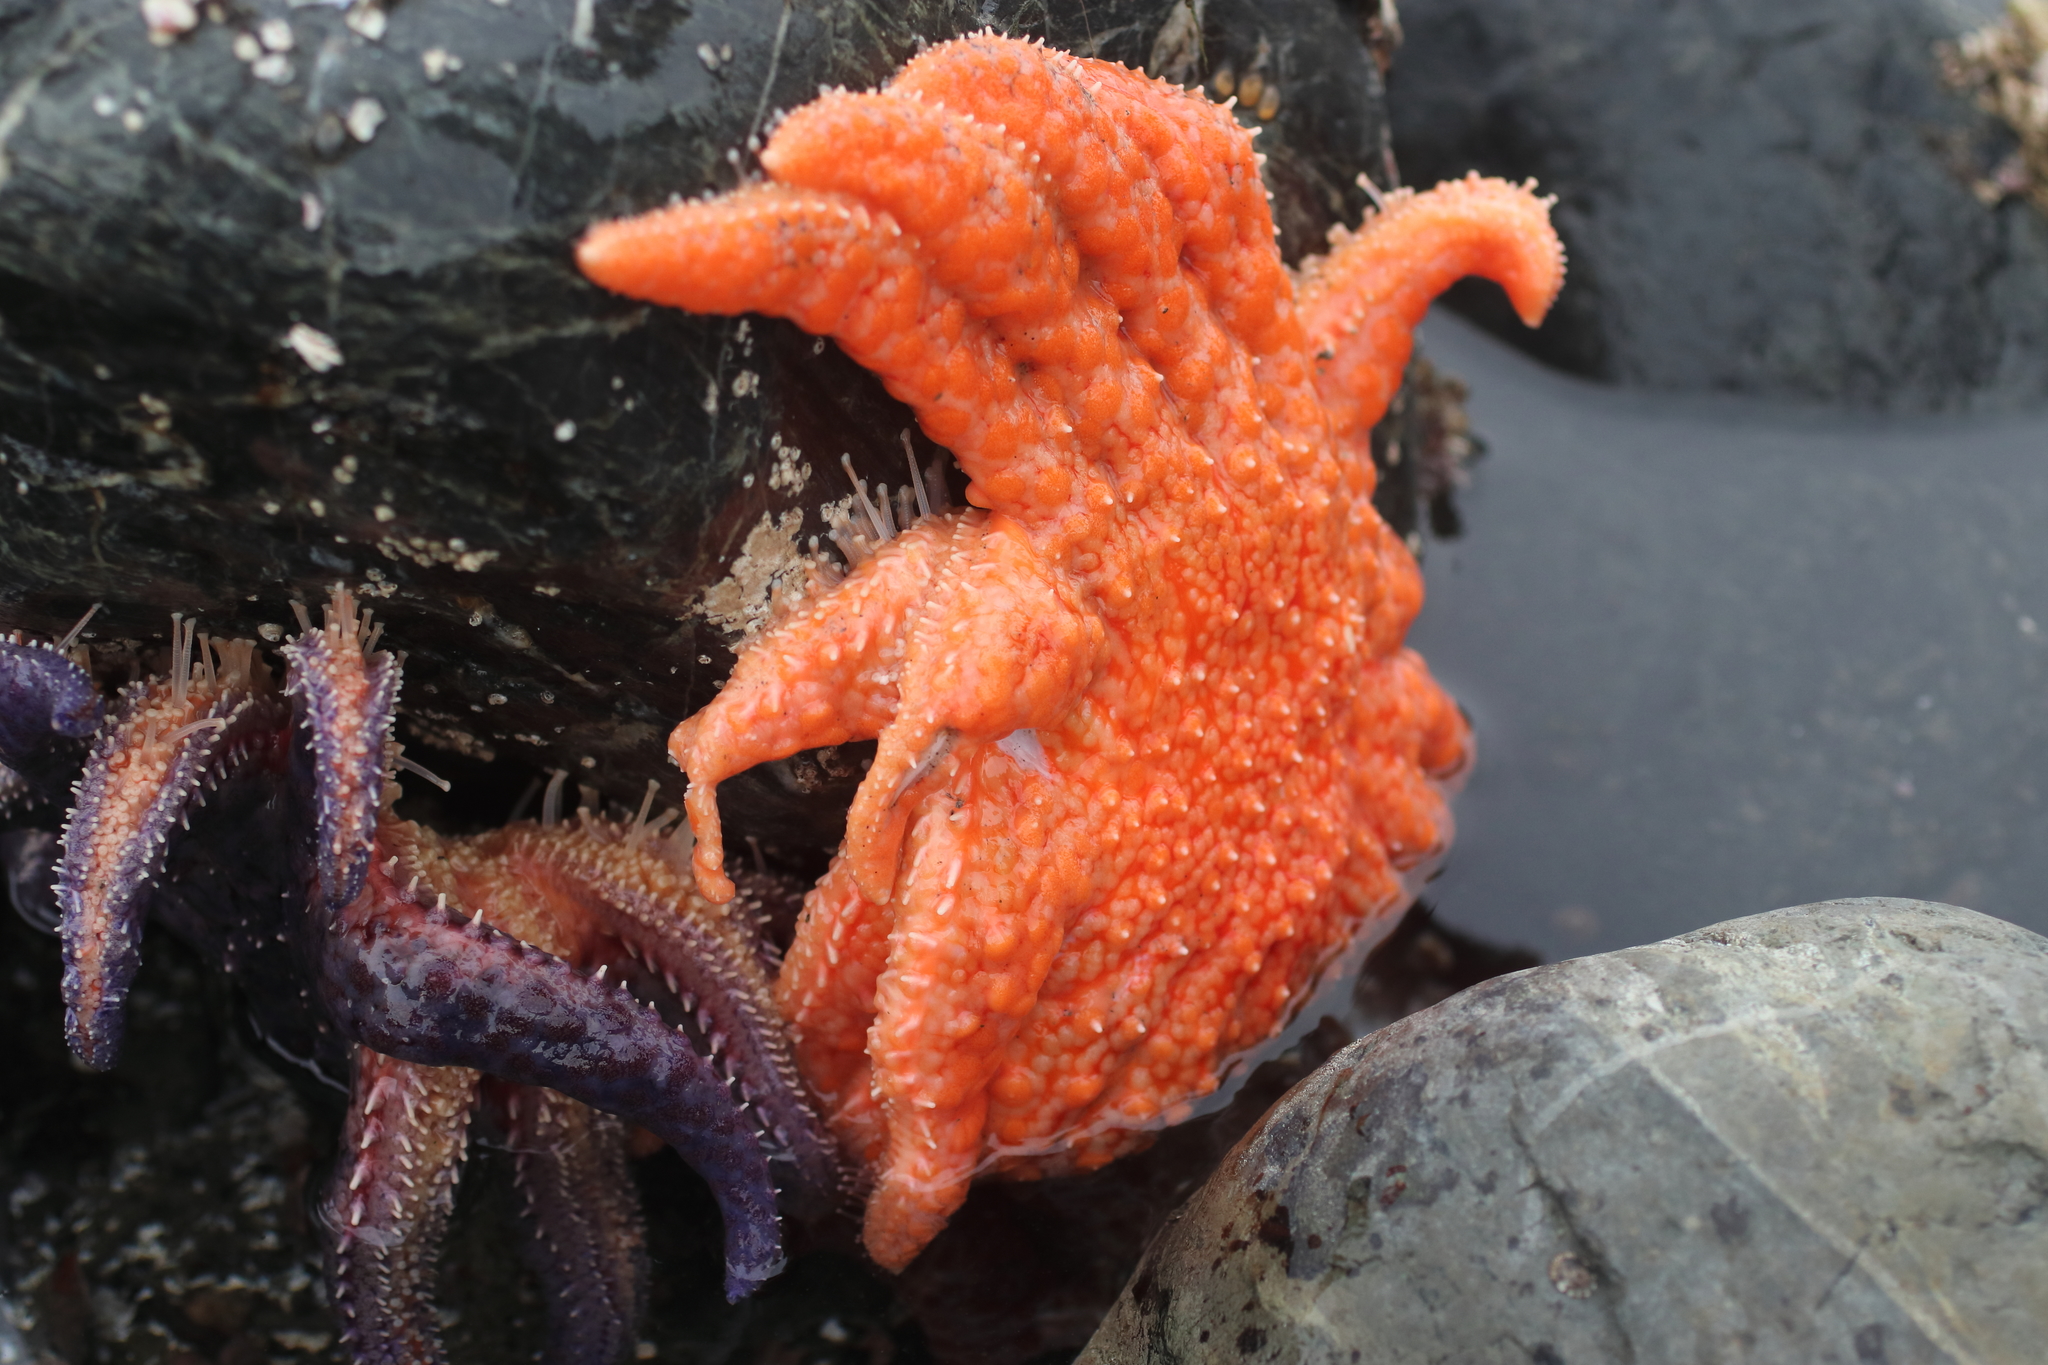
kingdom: Animalia
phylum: Echinodermata
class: Asteroidea
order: Forcipulatida
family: Asteriidae
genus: Pycnopodia
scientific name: Pycnopodia helianthoides
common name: Rag mop
